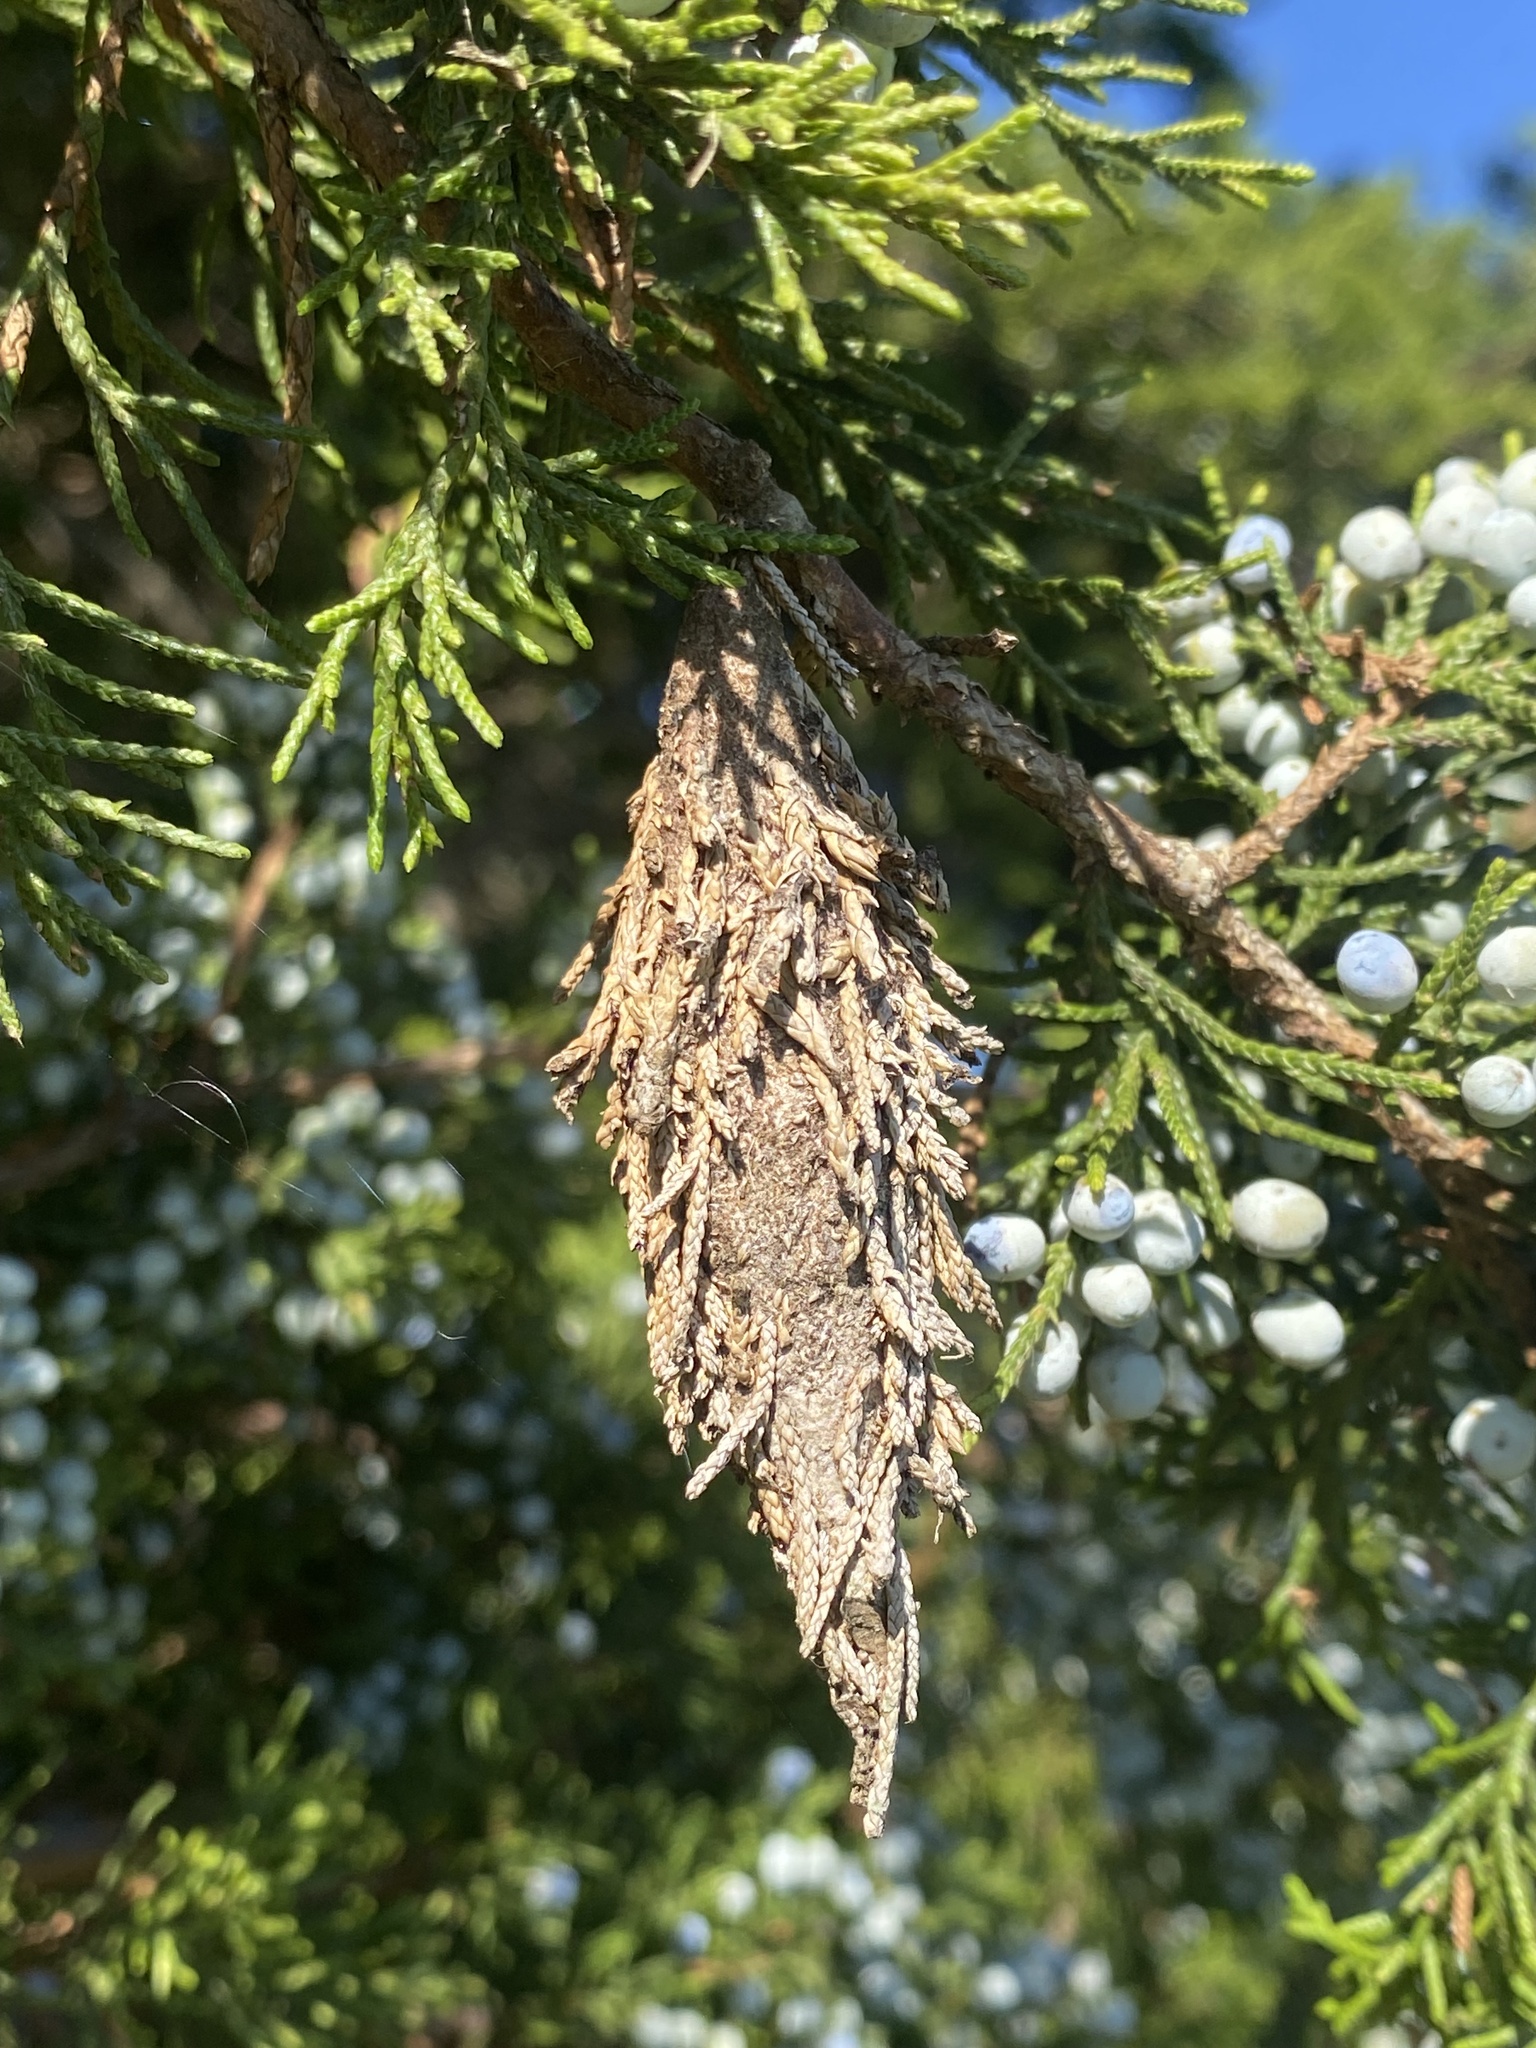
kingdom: Animalia
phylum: Arthropoda
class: Insecta
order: Lepidoptera
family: Psychidae
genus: Thyridopteryx
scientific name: Thyridopteryx ephemeraeformis
